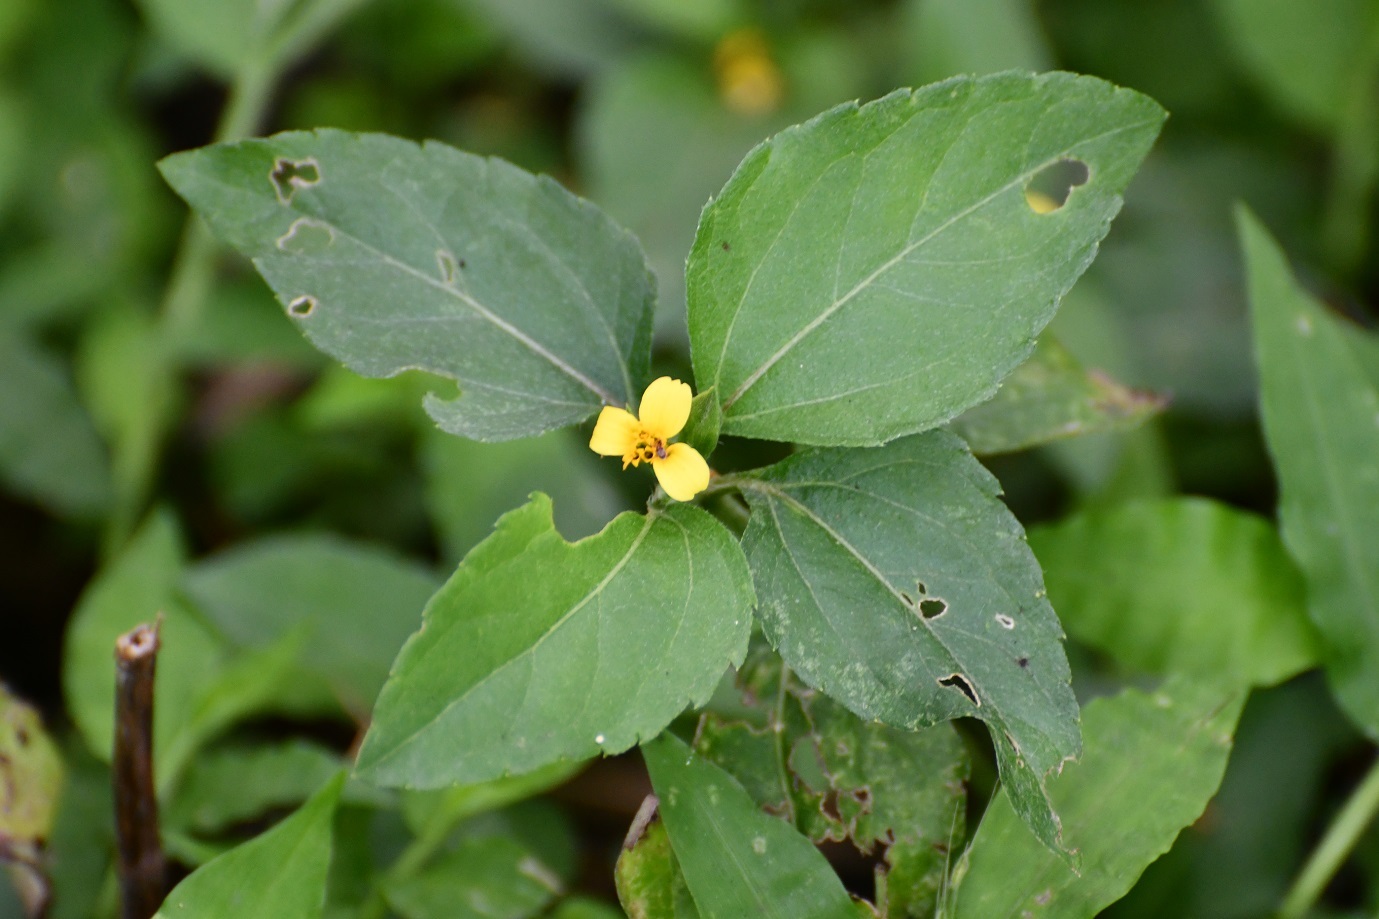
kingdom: Plantae
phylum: Tracheophyta
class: Magnoliopsida
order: Asterales
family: Asteraceae
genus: Calyptocarpus
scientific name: Calyptocarpus vialis
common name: Straggler daisy
